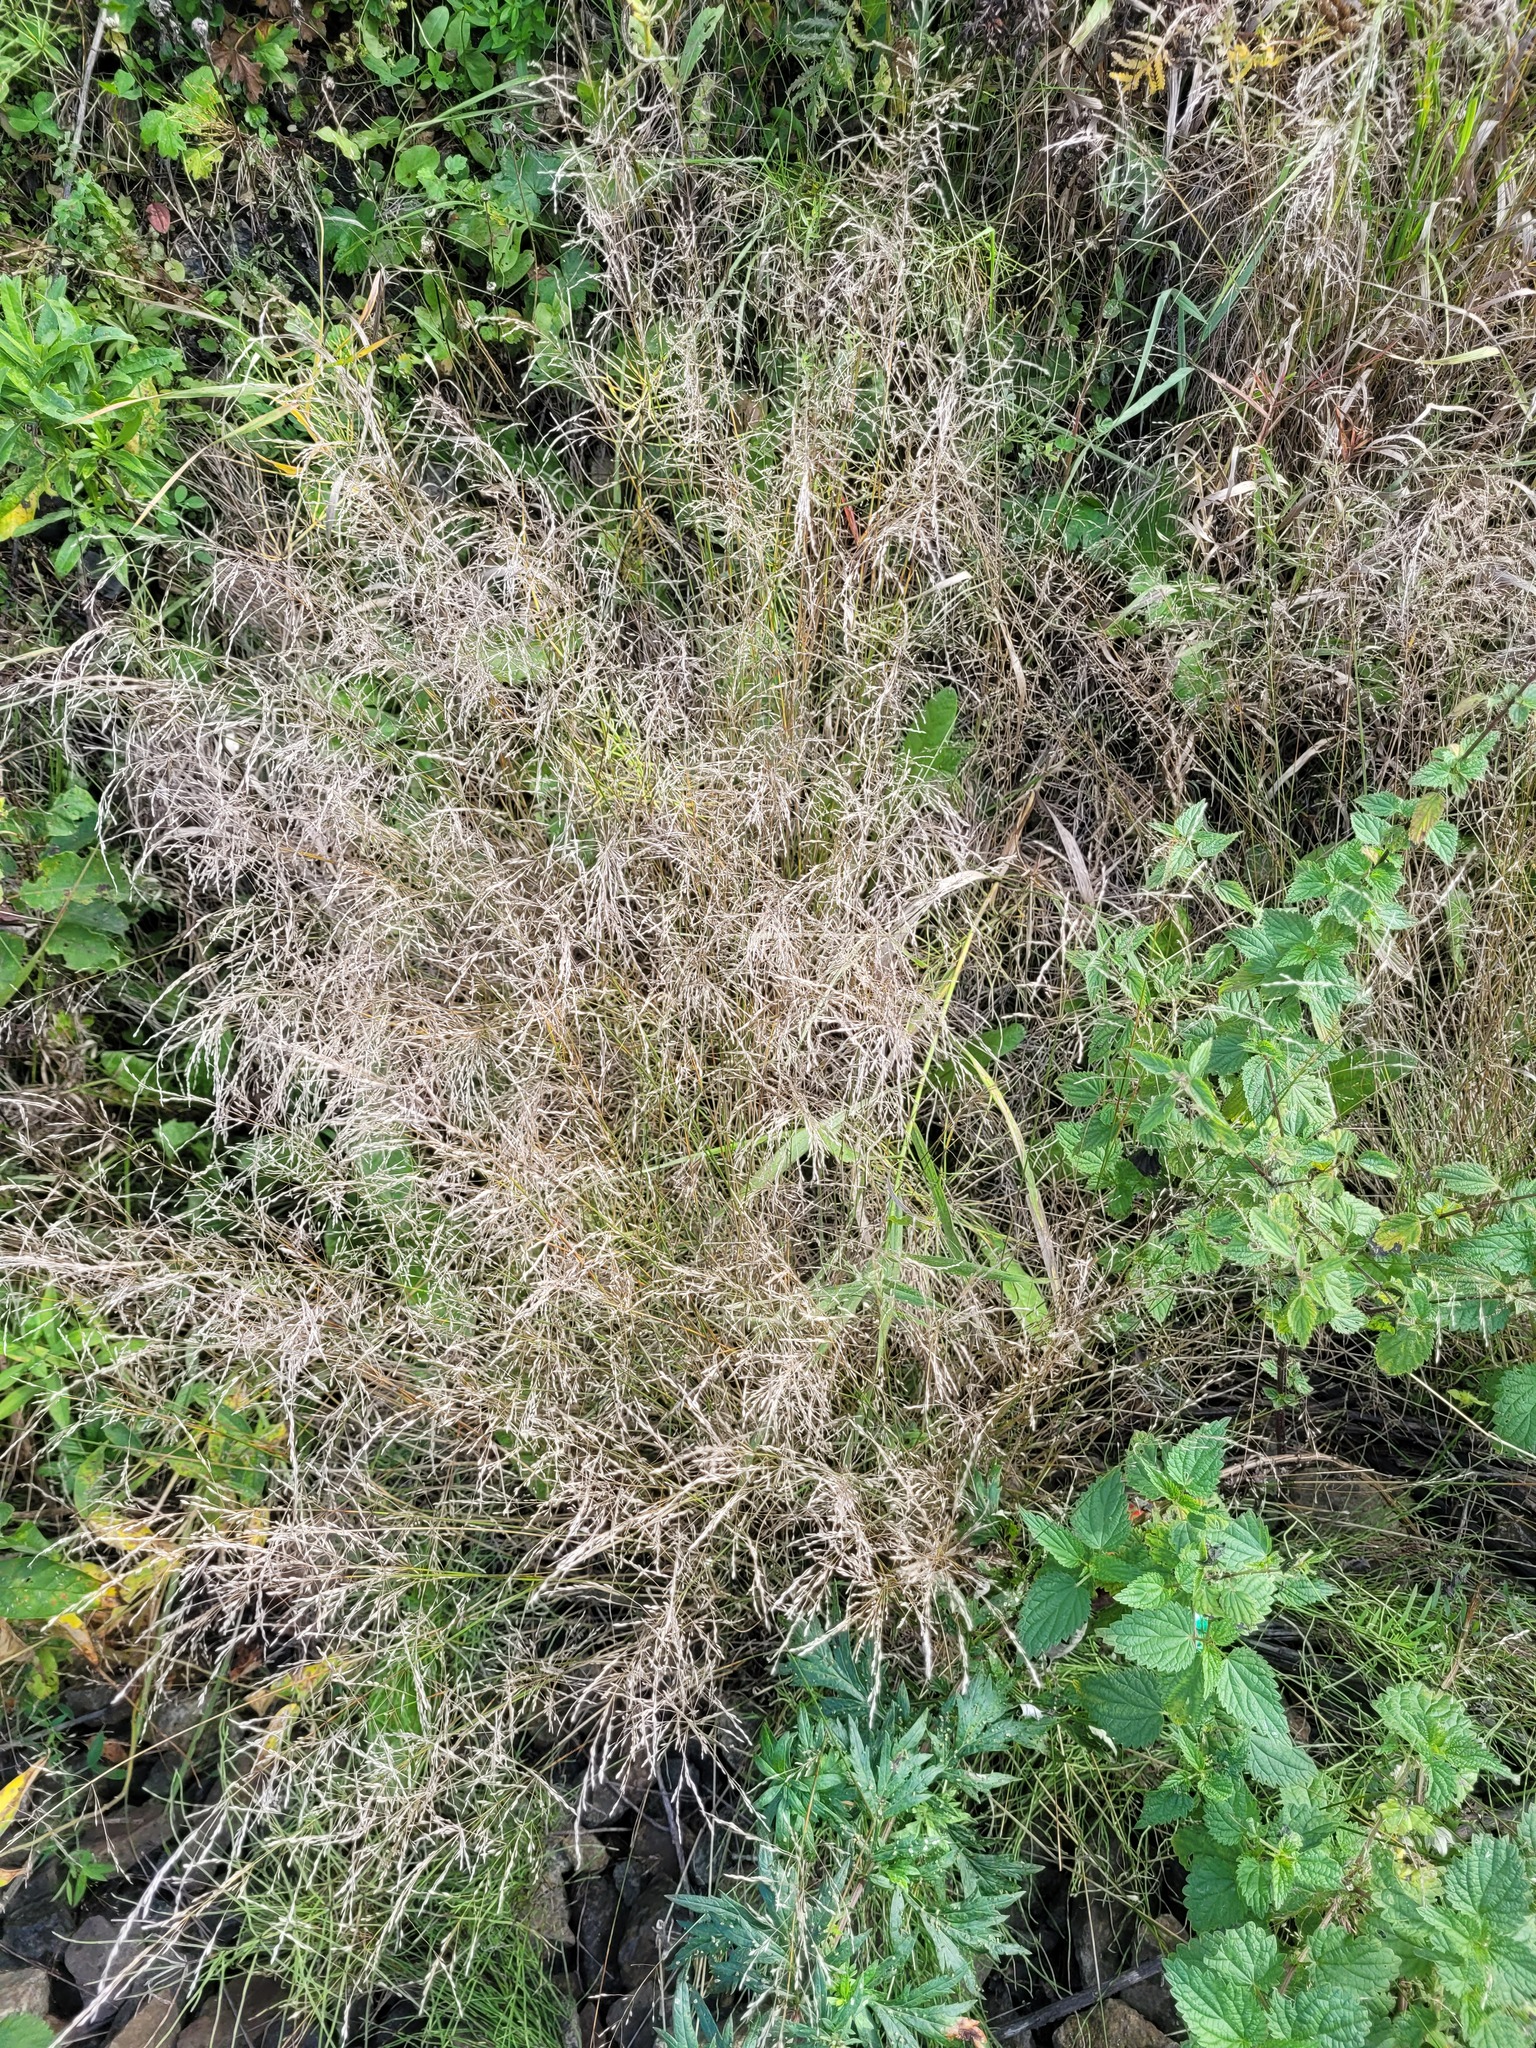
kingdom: Plantae
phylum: Tracheophyta
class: Liliopsida
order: Poales
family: Poaceae
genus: Poa
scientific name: Poa palustris
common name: Swamp meadow-grass
